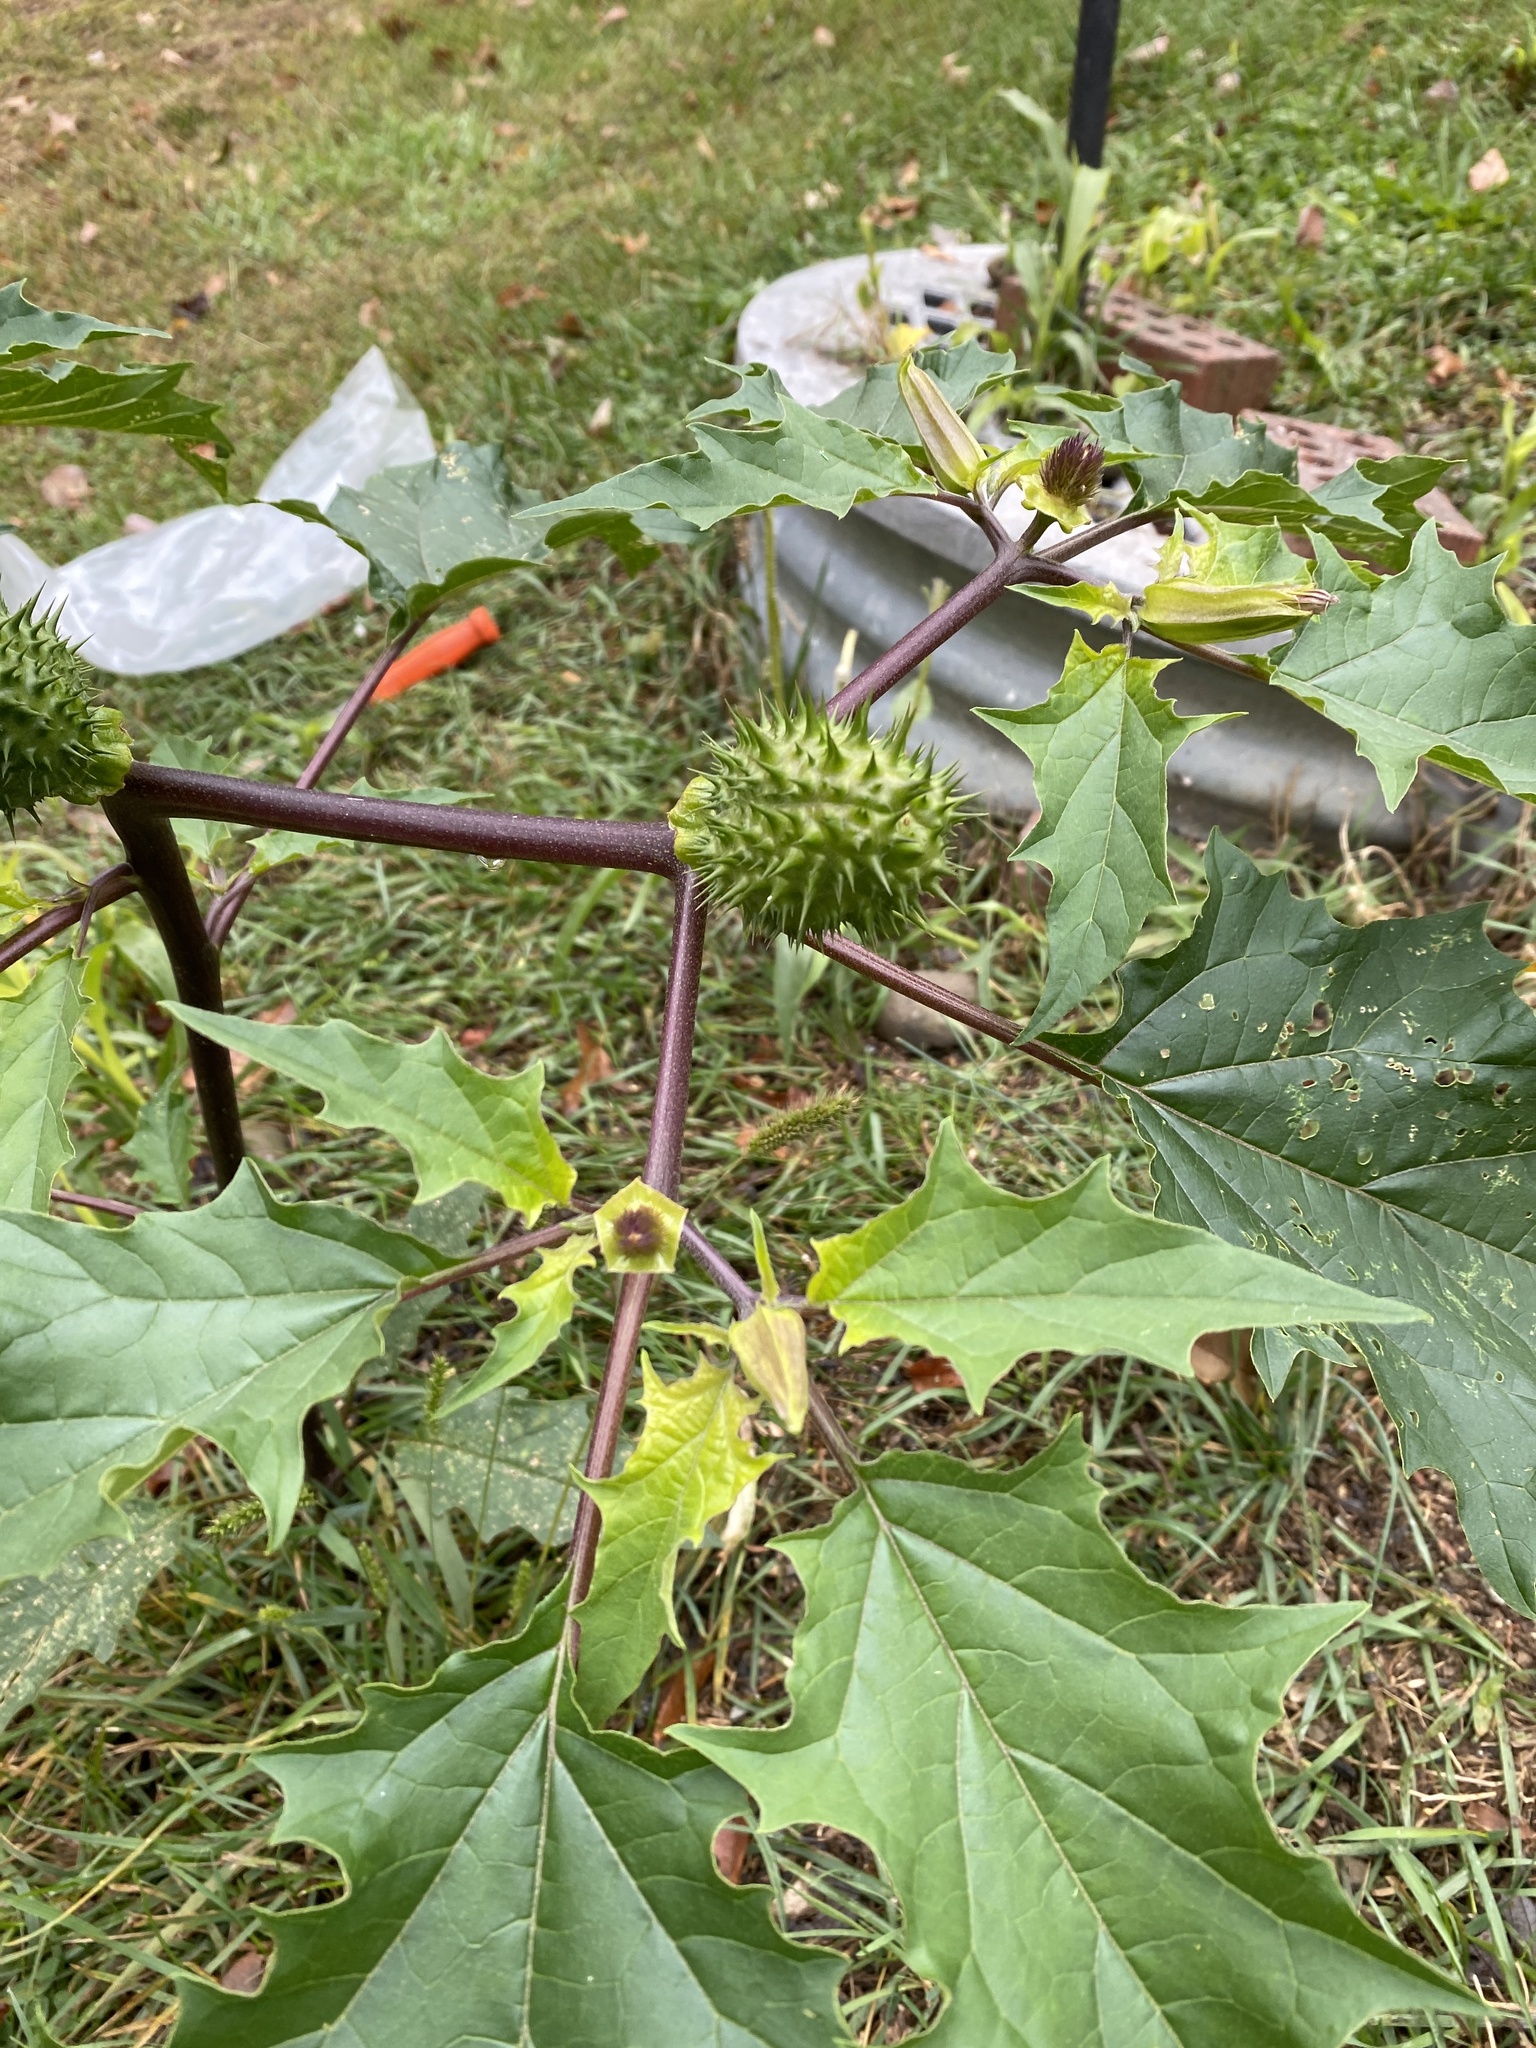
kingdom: Plantae
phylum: Tracheophyta
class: Magnoliopsida
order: Solanales
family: Solanaceae
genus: Datura
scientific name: Datura stramonium
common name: Thorn-apple
